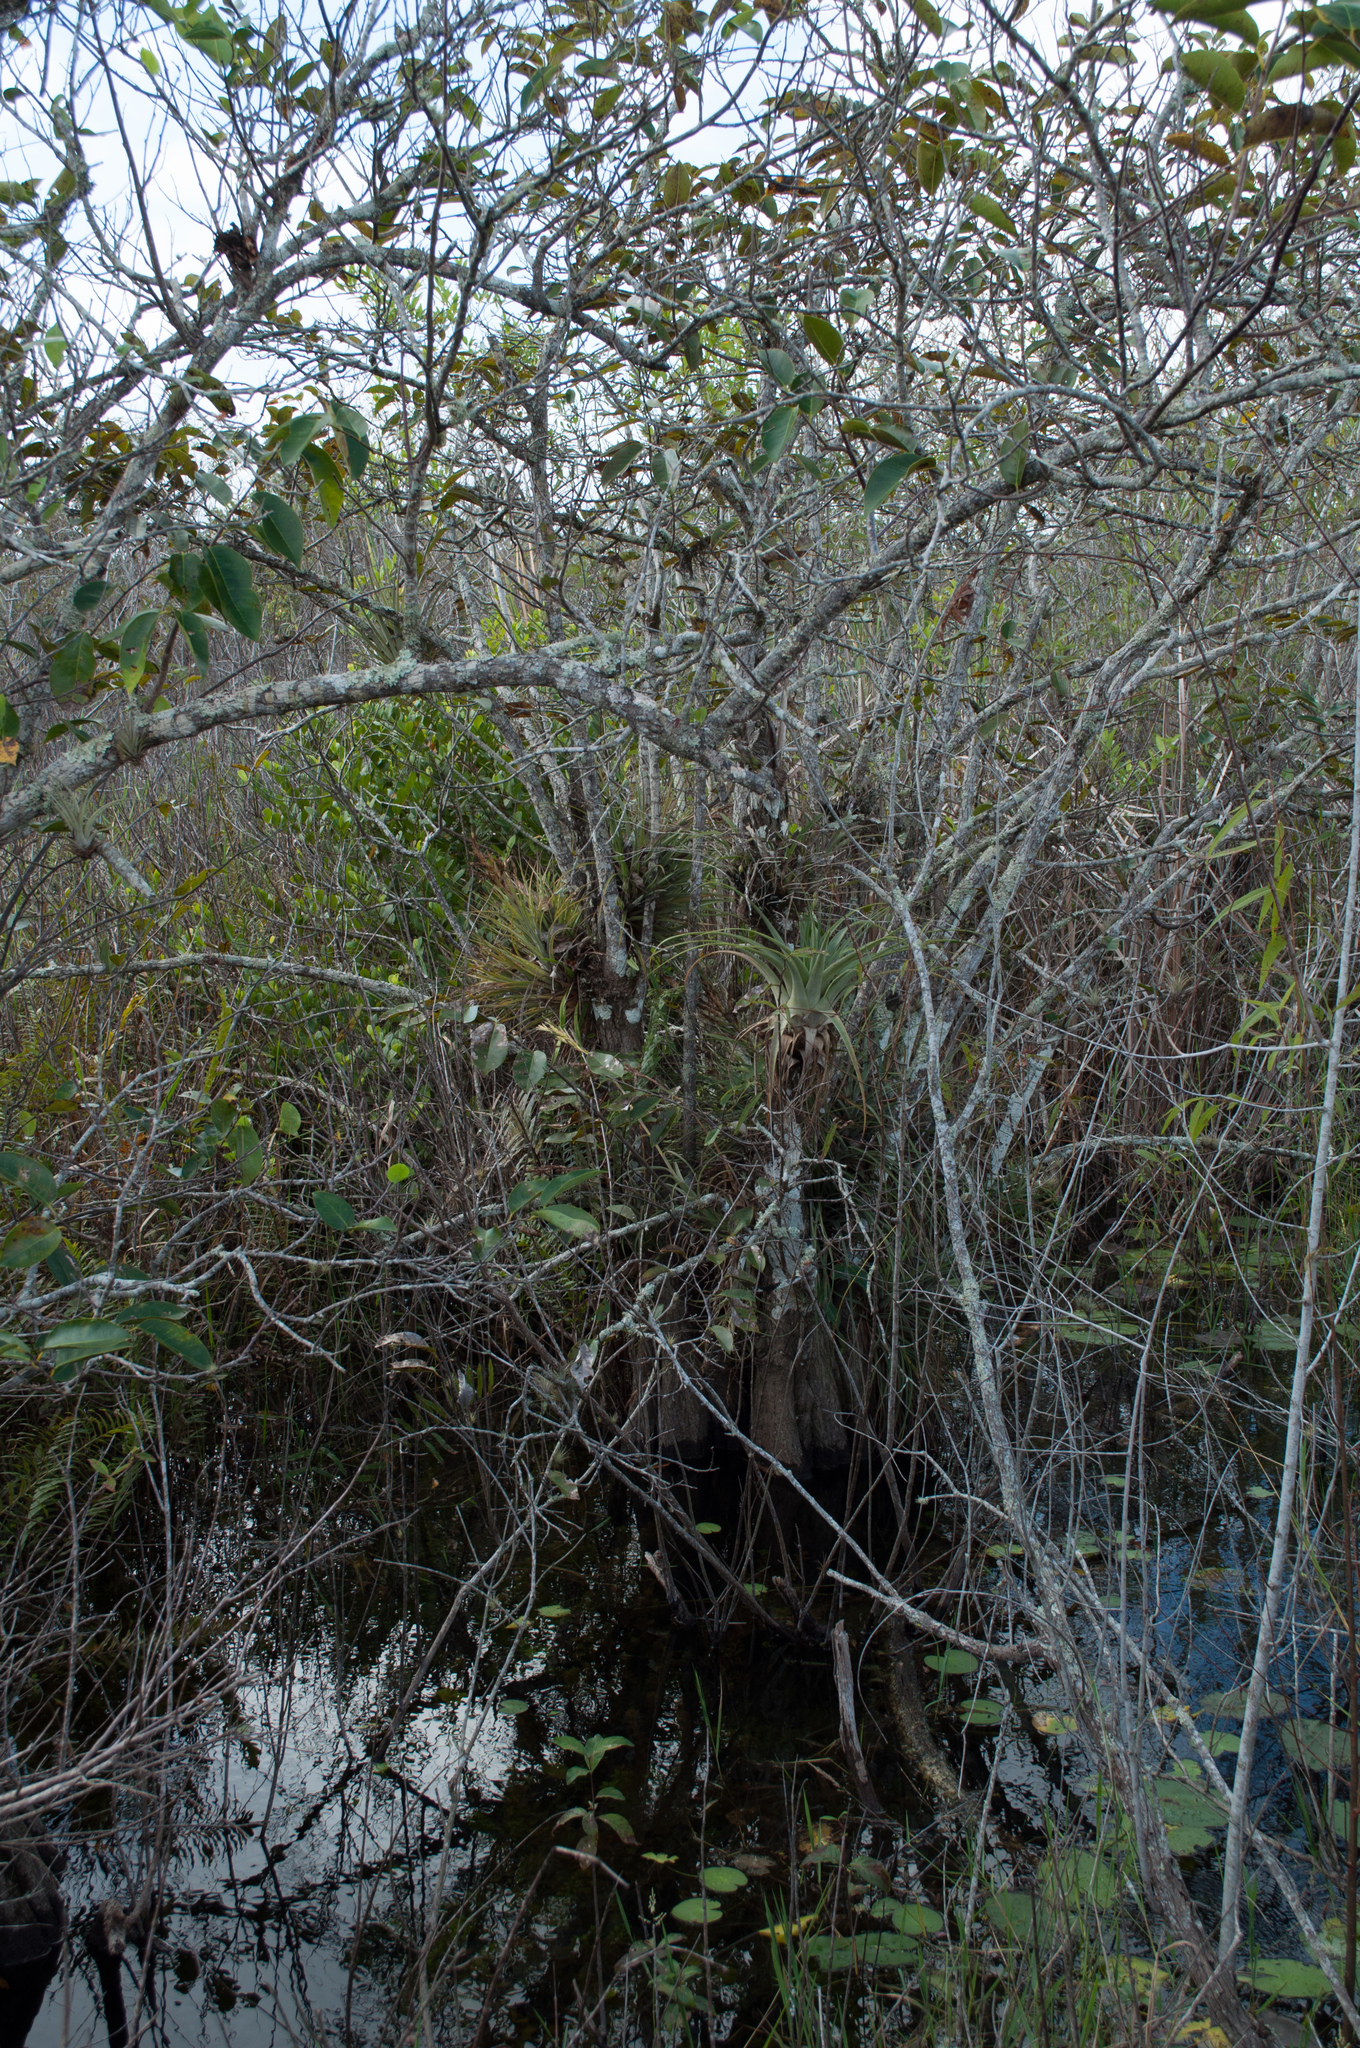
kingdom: Plantae
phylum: Tracheophyta
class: Liliopsida
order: Poales
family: Bromeliaceae
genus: Tillandsia
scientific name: Tillandsia utriculata
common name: Wild pine
